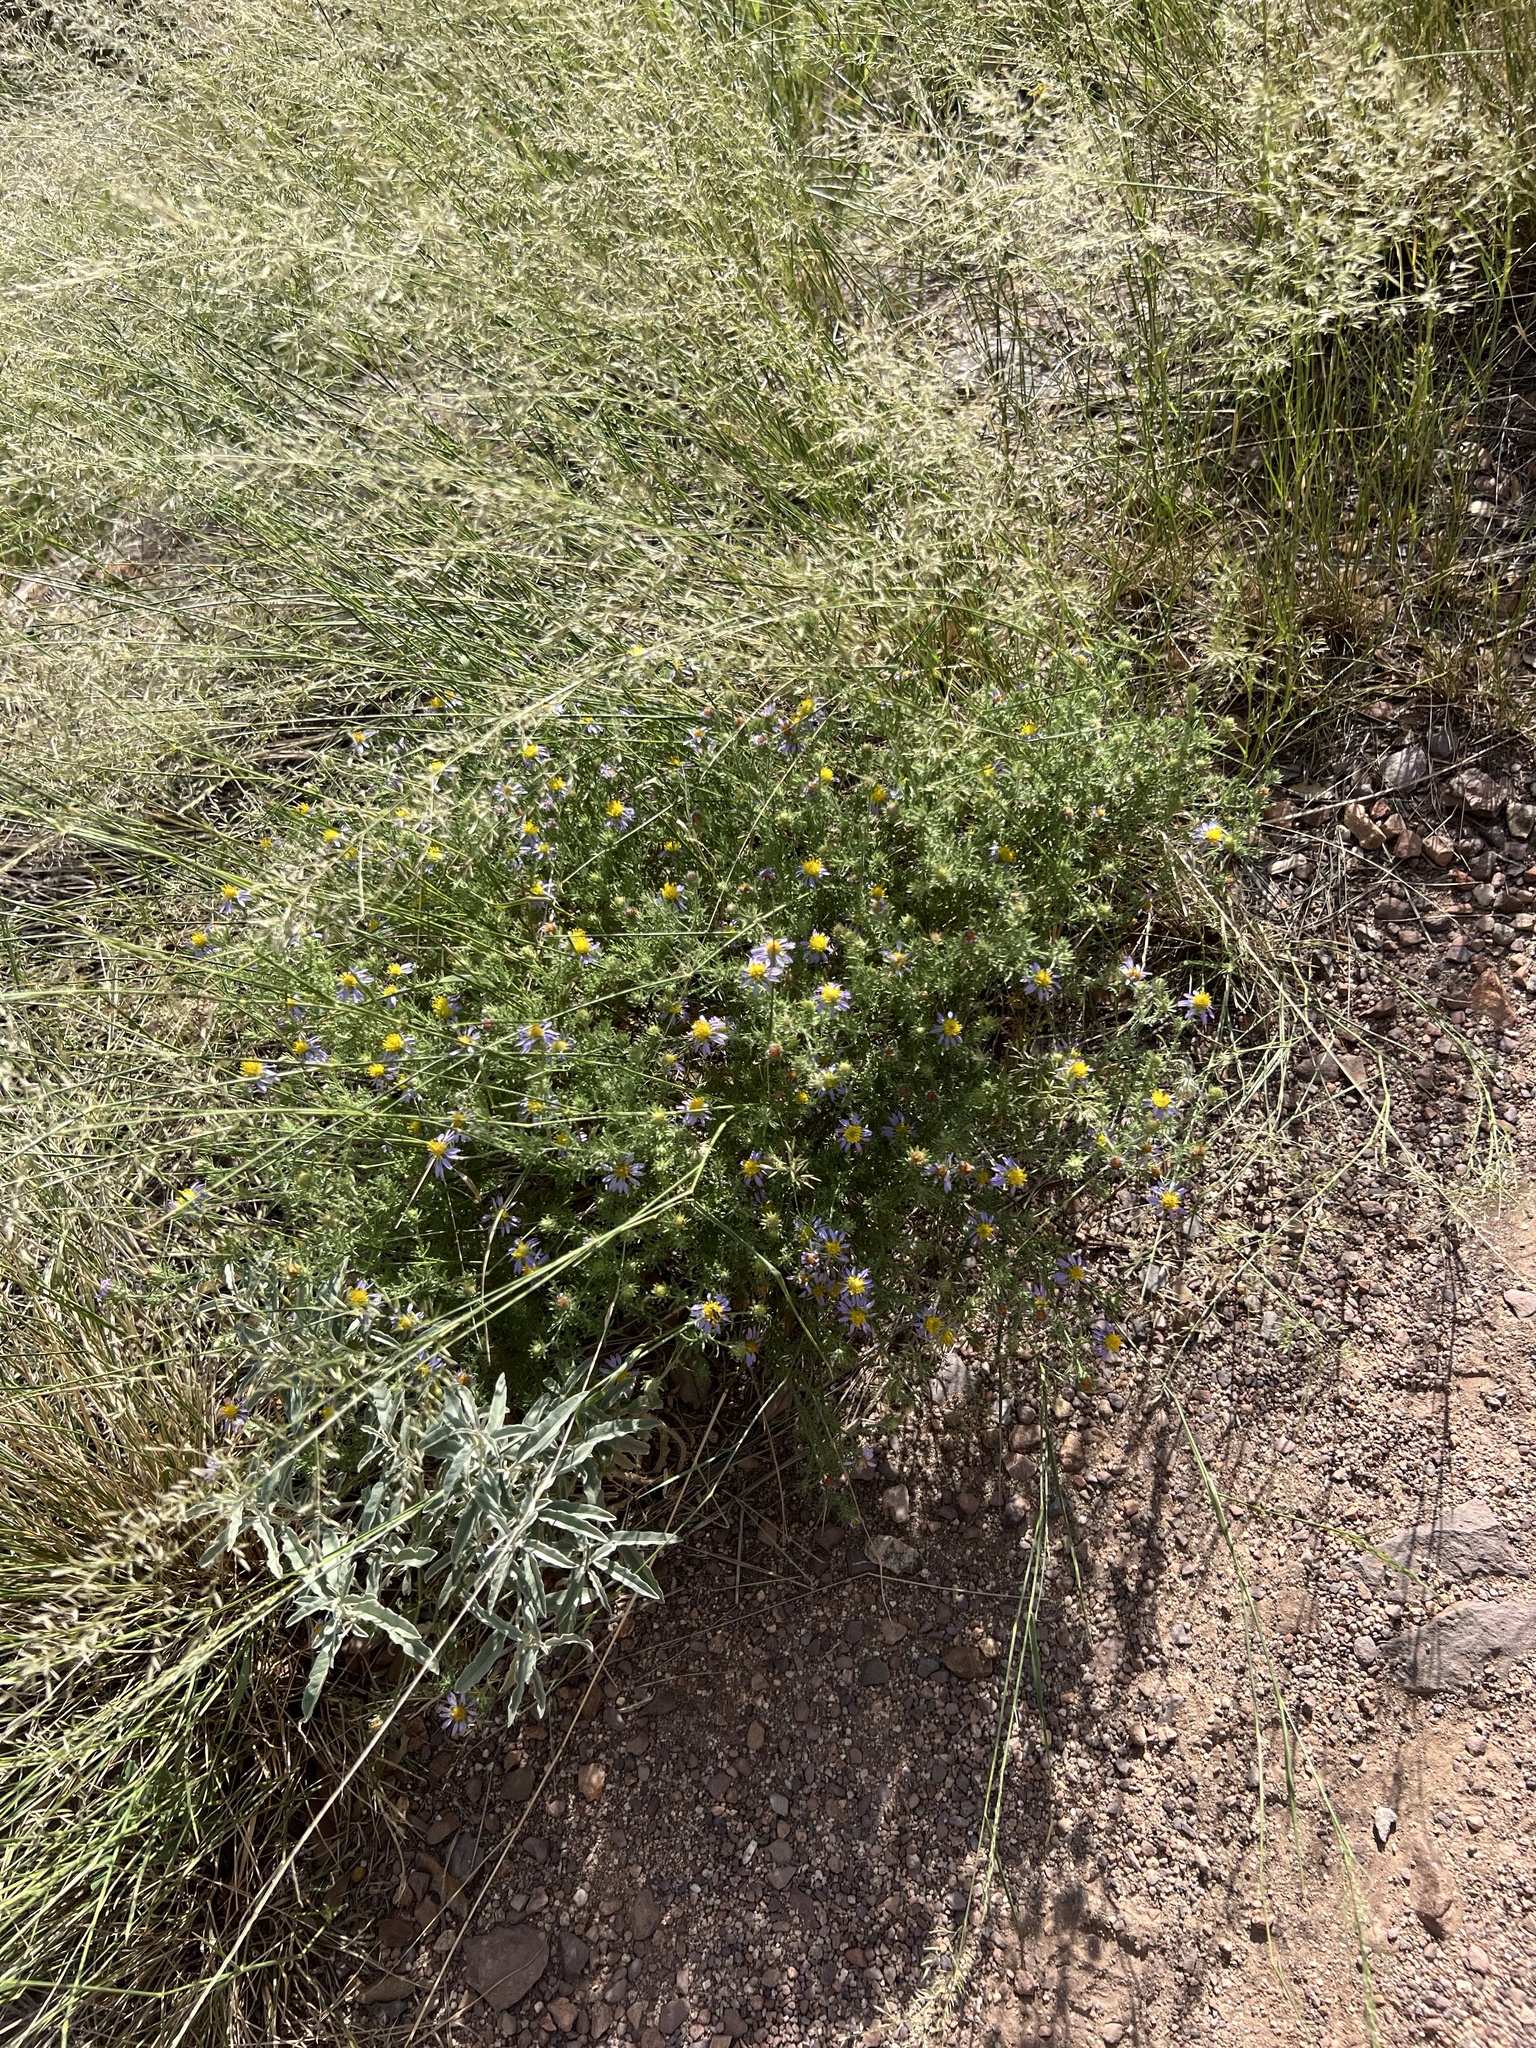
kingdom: Plantae
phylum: Tracheophyta
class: Magnoliopsida
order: Asterales
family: Asteraceae
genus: Machaeranthera
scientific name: Machaeranthera tagetina
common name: Mesa tansy-aster
